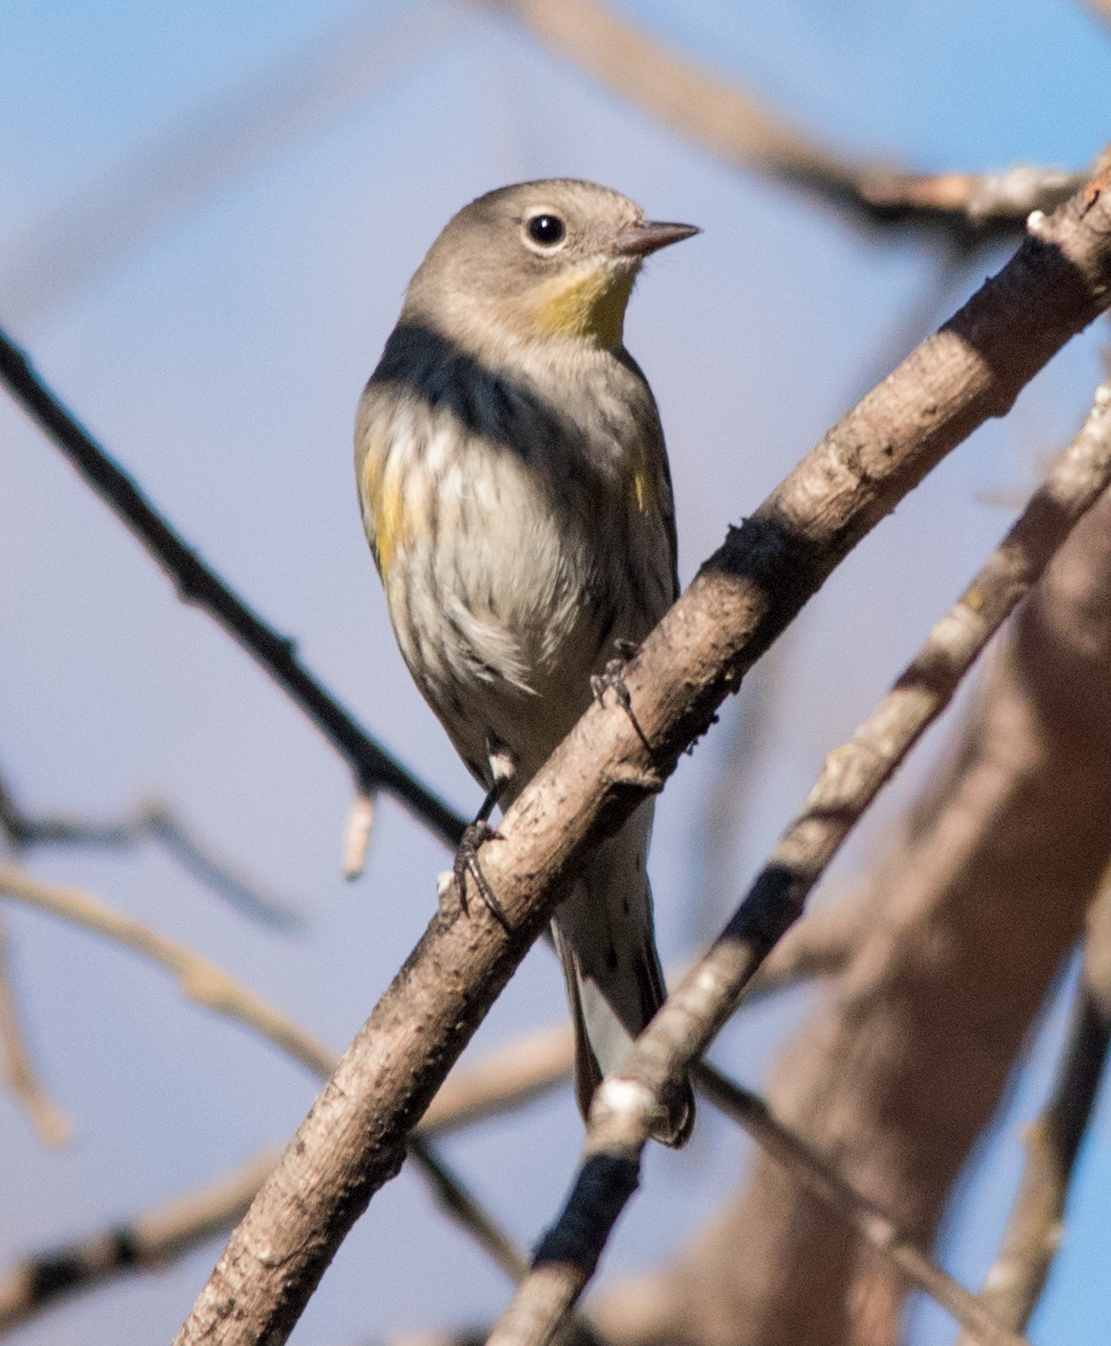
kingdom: Animalia
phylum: Chordata
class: Aves
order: Passeriformes
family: Parulidae
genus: Setophaga
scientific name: Setophaga coronata
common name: Myrtle warbler
